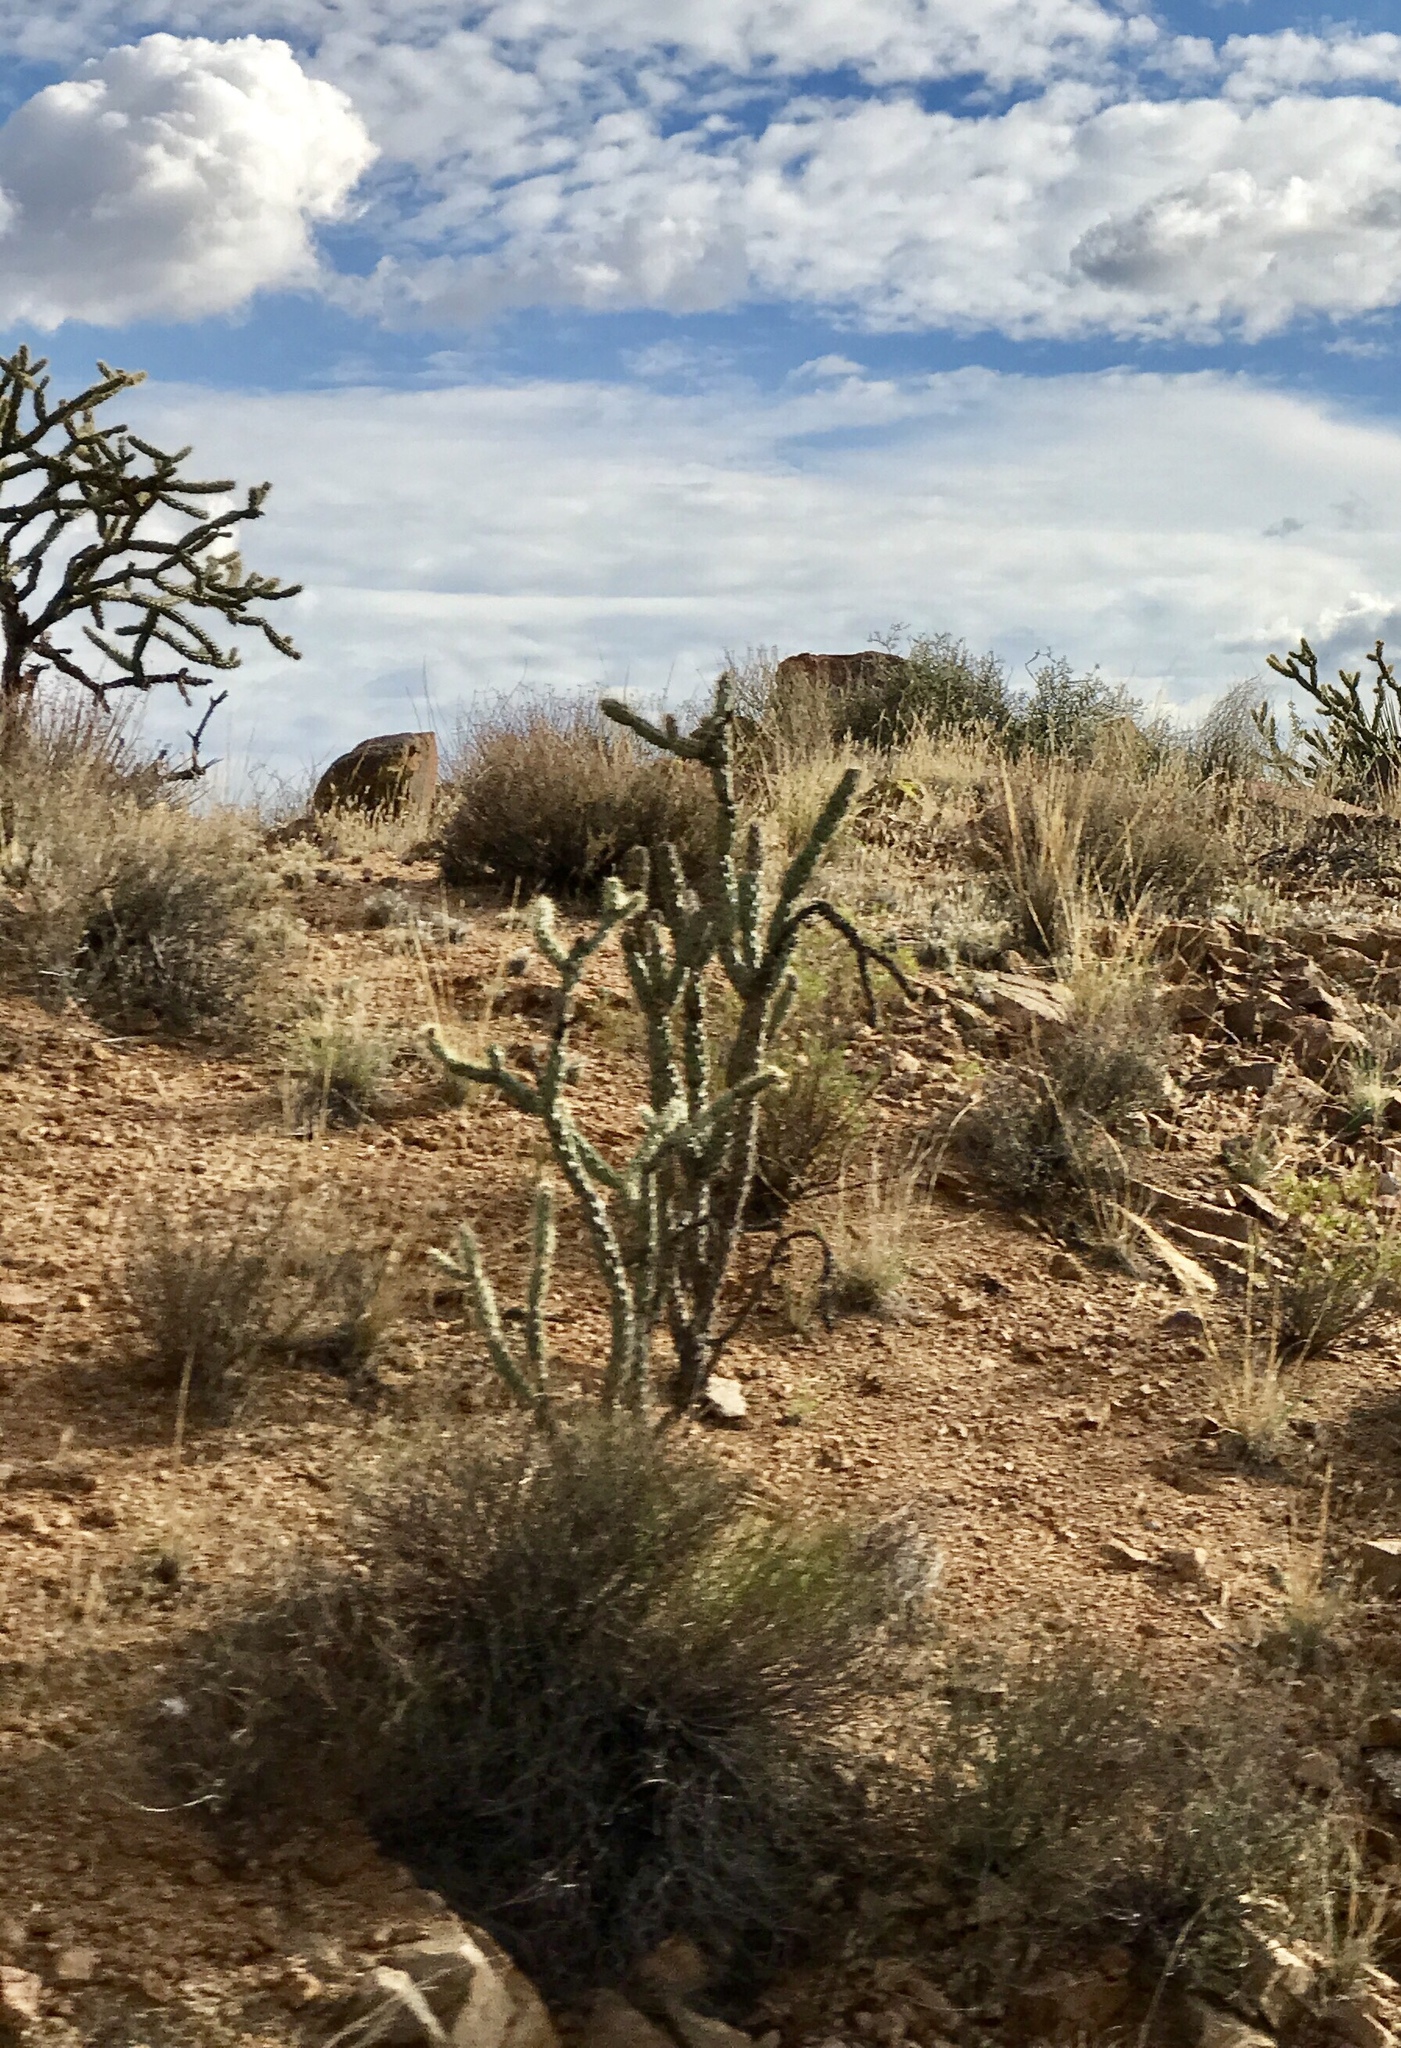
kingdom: Plantae
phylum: Tracheophyta
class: Magnoliopsida
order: Caryophyllales
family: Cactaceae
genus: Cylindropuntia
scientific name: Cylindropuntia acanthocarpa
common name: Buckhorn cholla
